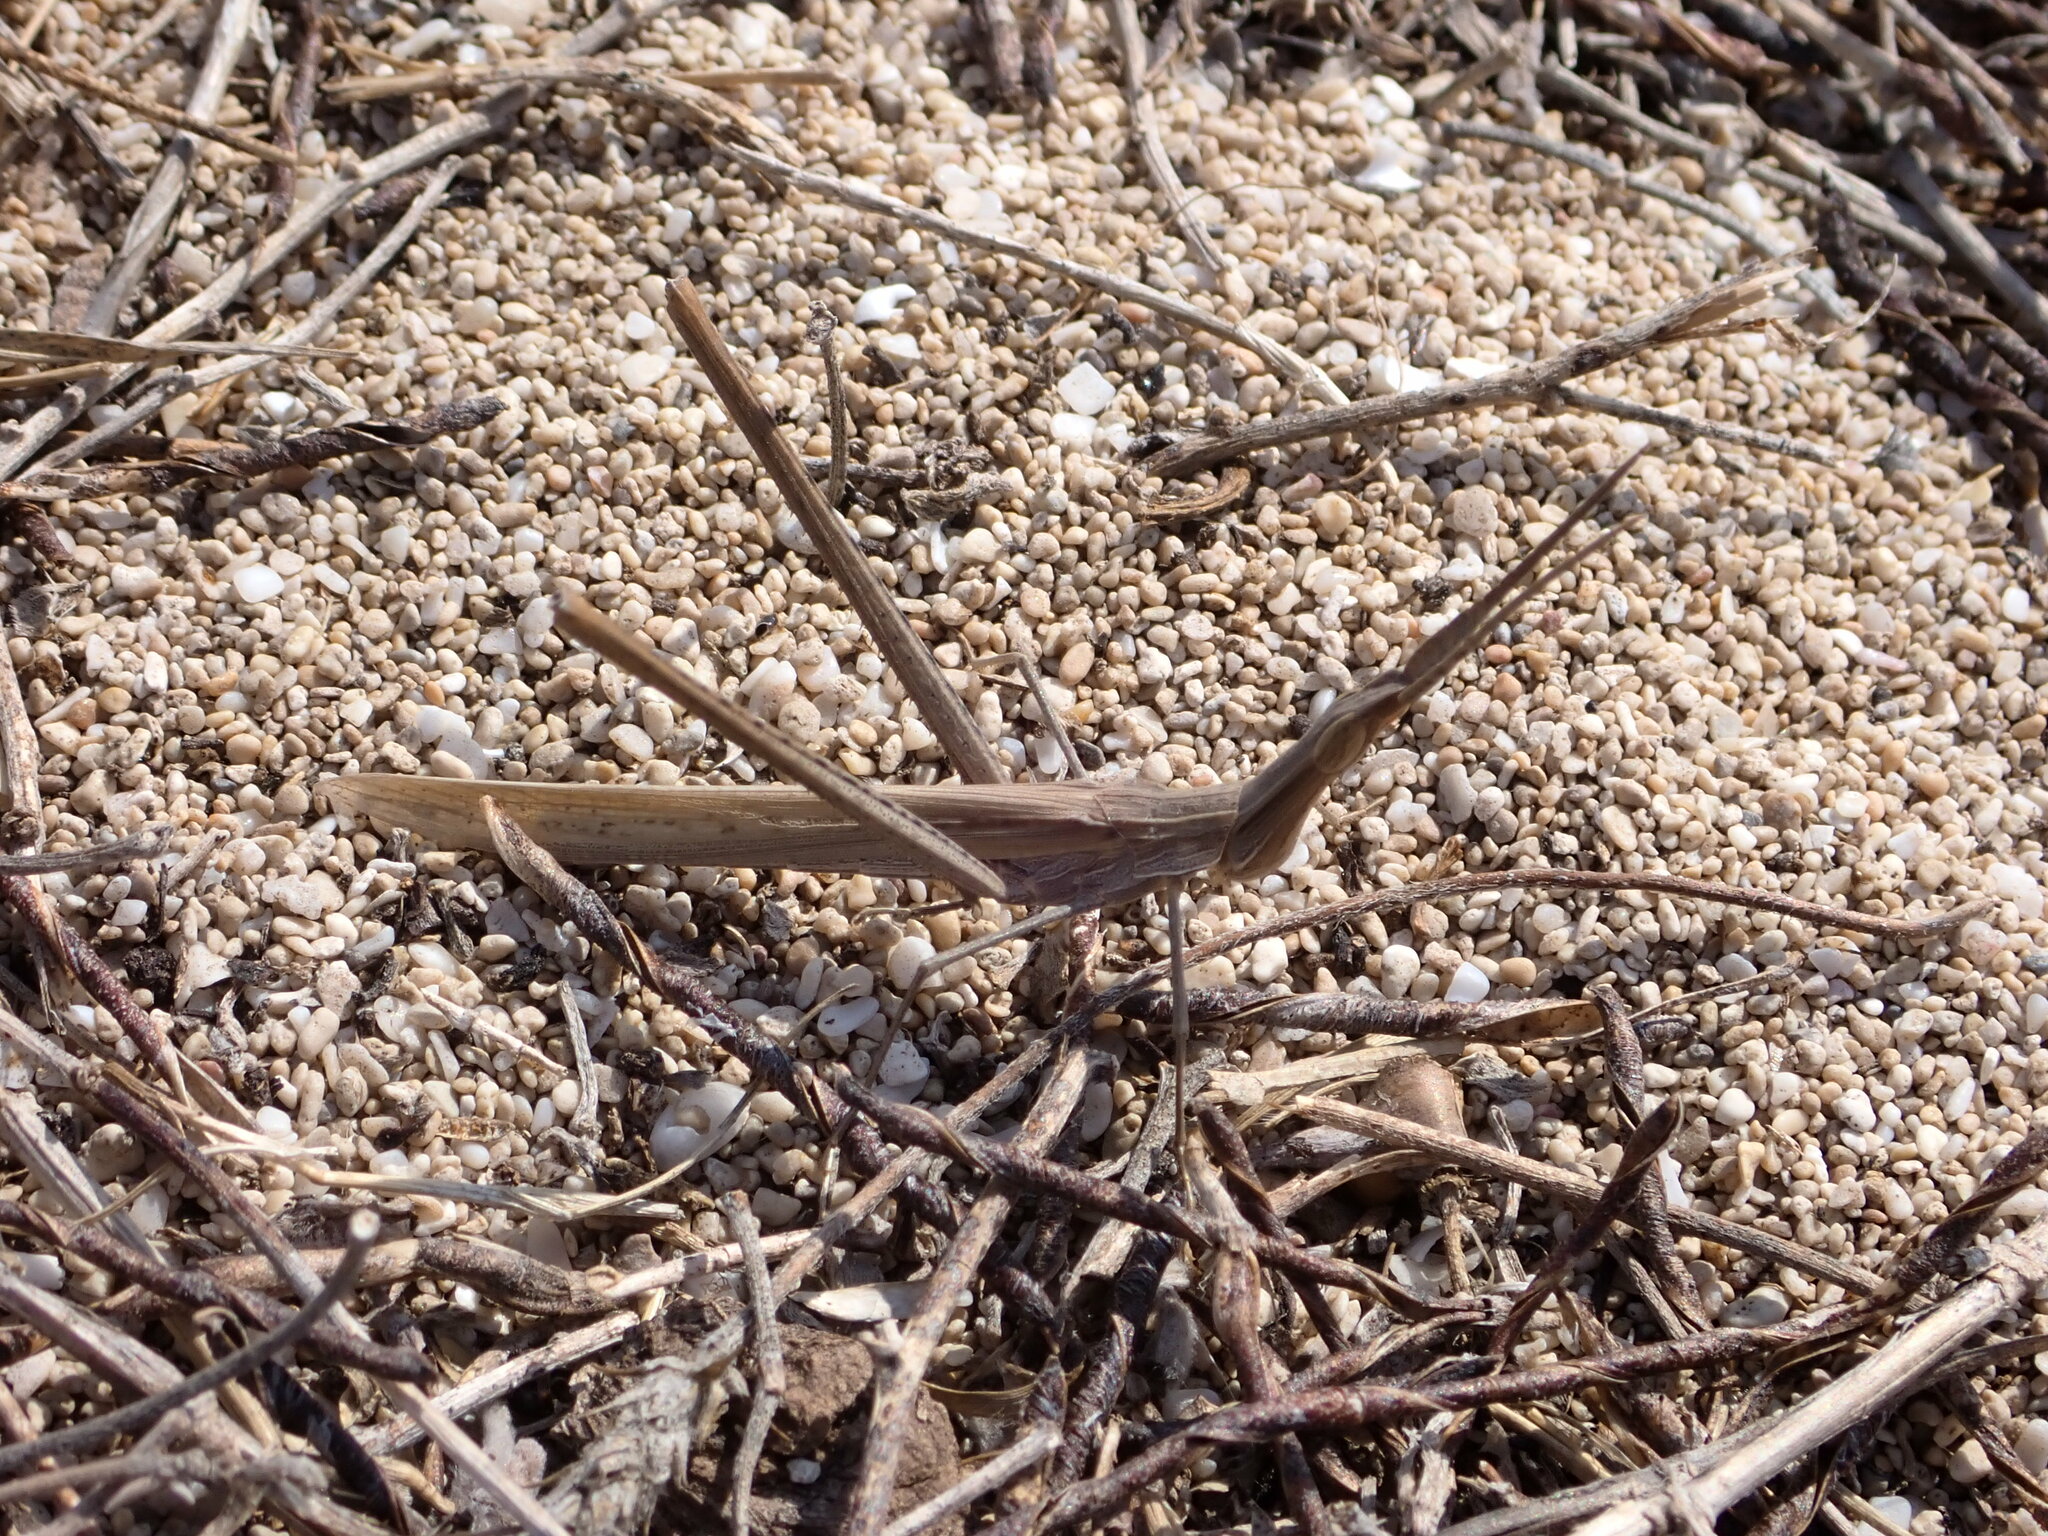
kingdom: Animalia
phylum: Arthropoda
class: Insecta
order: Orthoptera
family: Acrididae
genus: Acrida
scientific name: Acrida ungarica
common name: Common cone-headed grasshopper
